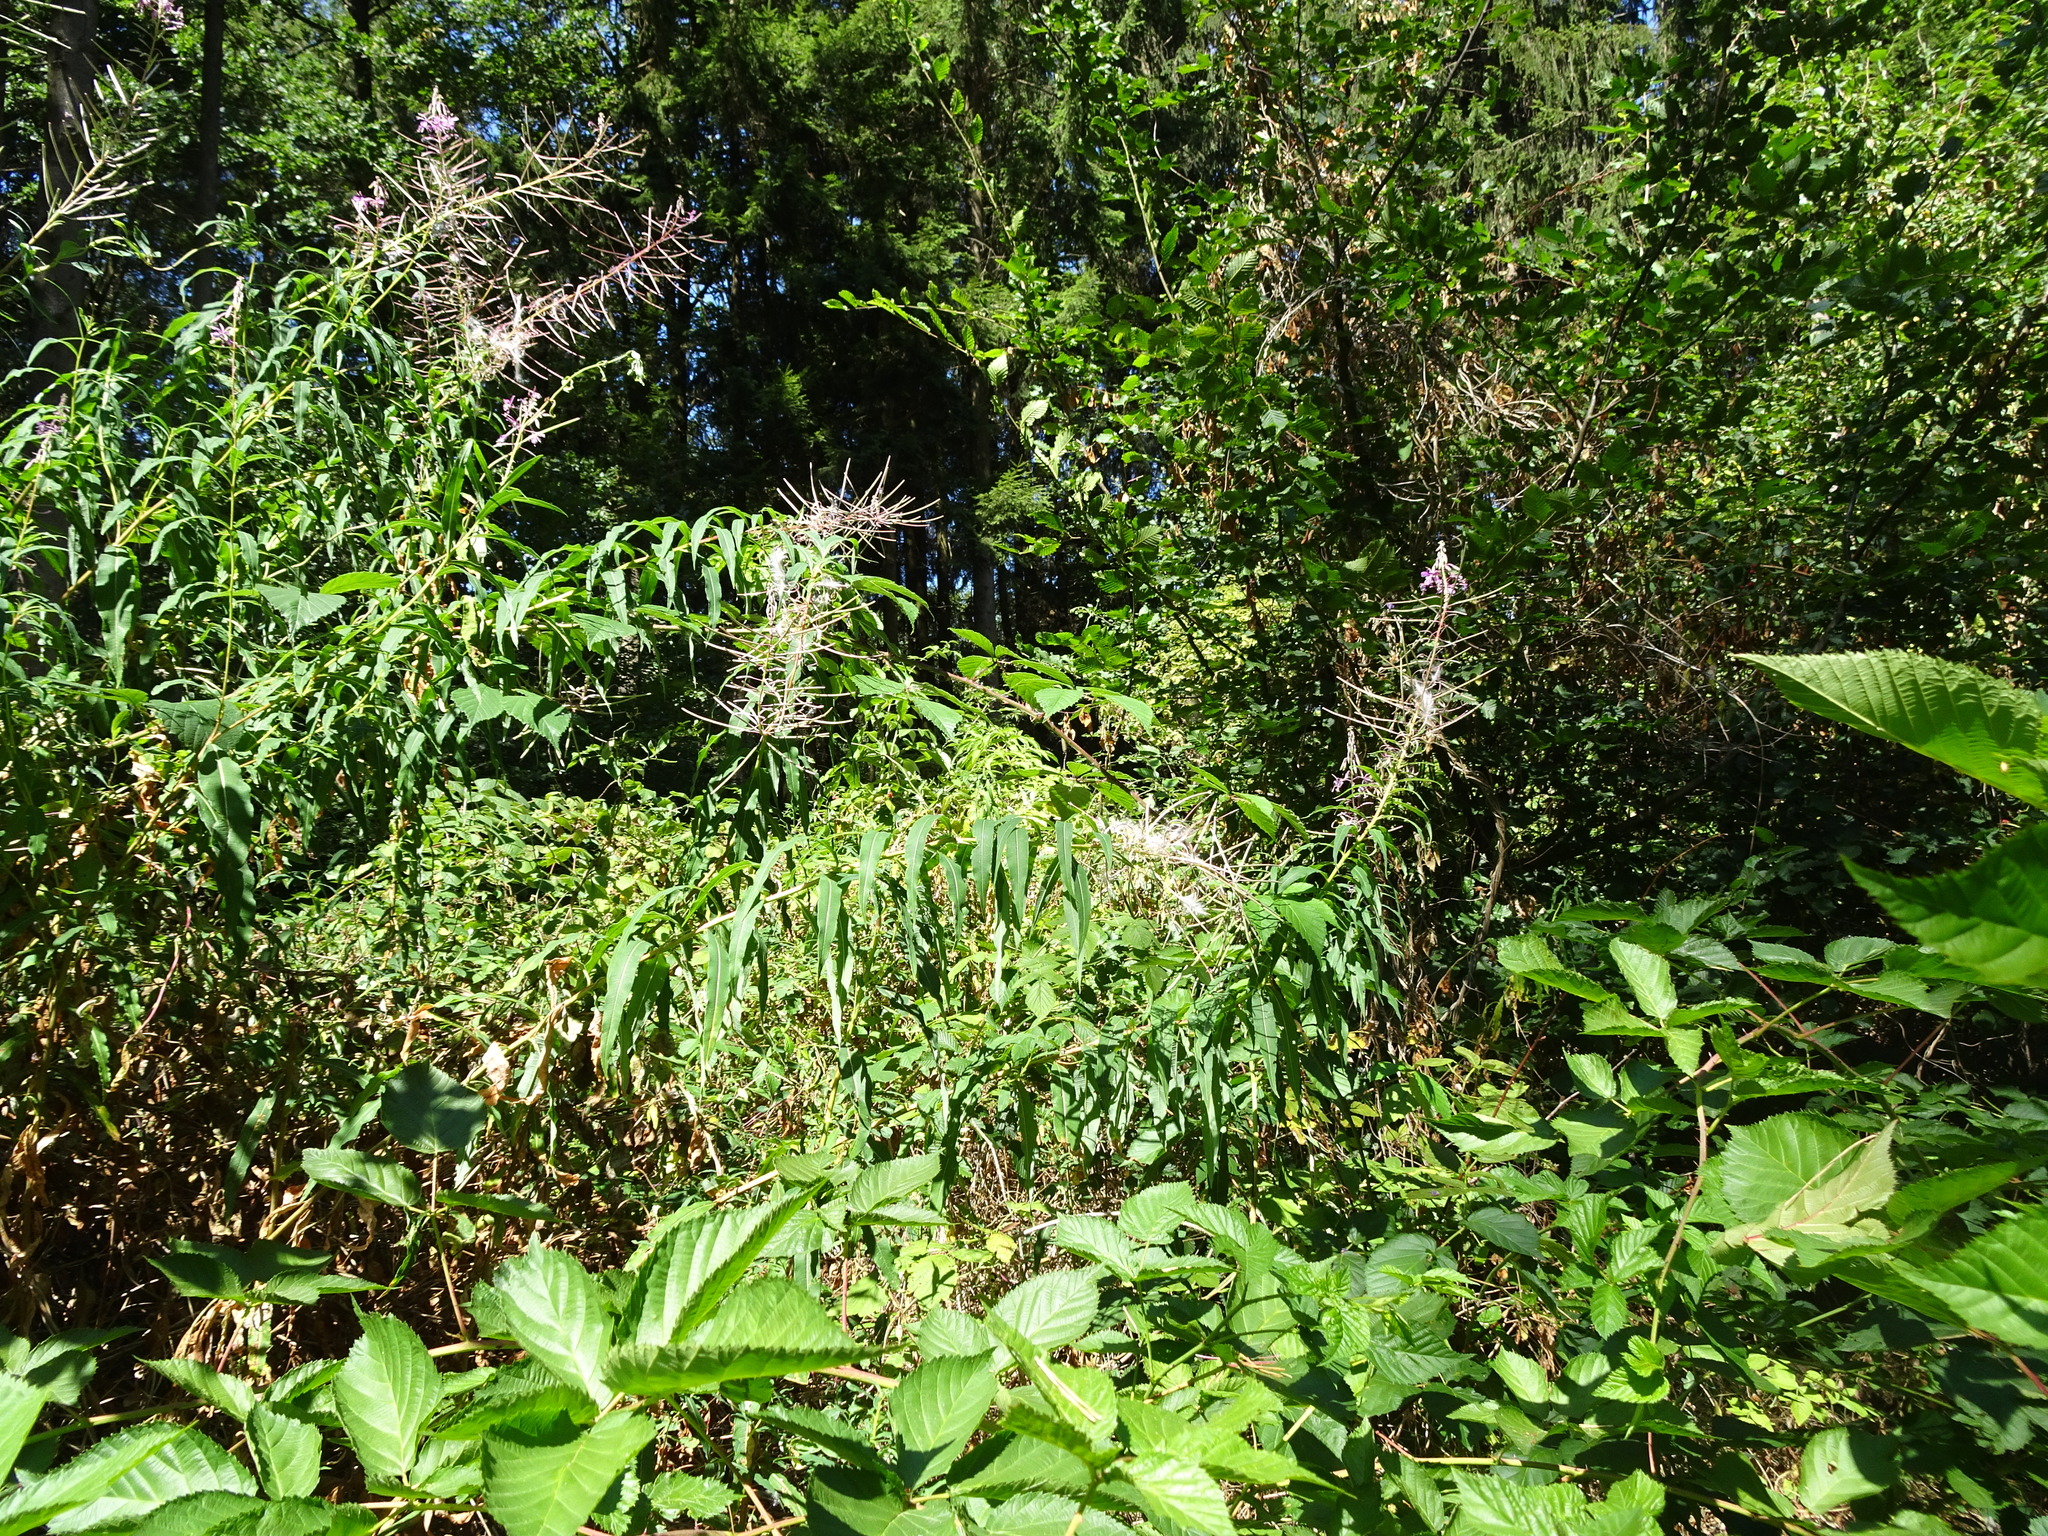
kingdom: Plantae
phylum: Tracheophyta
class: Magnoliopsida
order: Myrtales
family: Onagraceae
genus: Chamaenerion
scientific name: Chamaenerion angustifolium
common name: Fireweed
